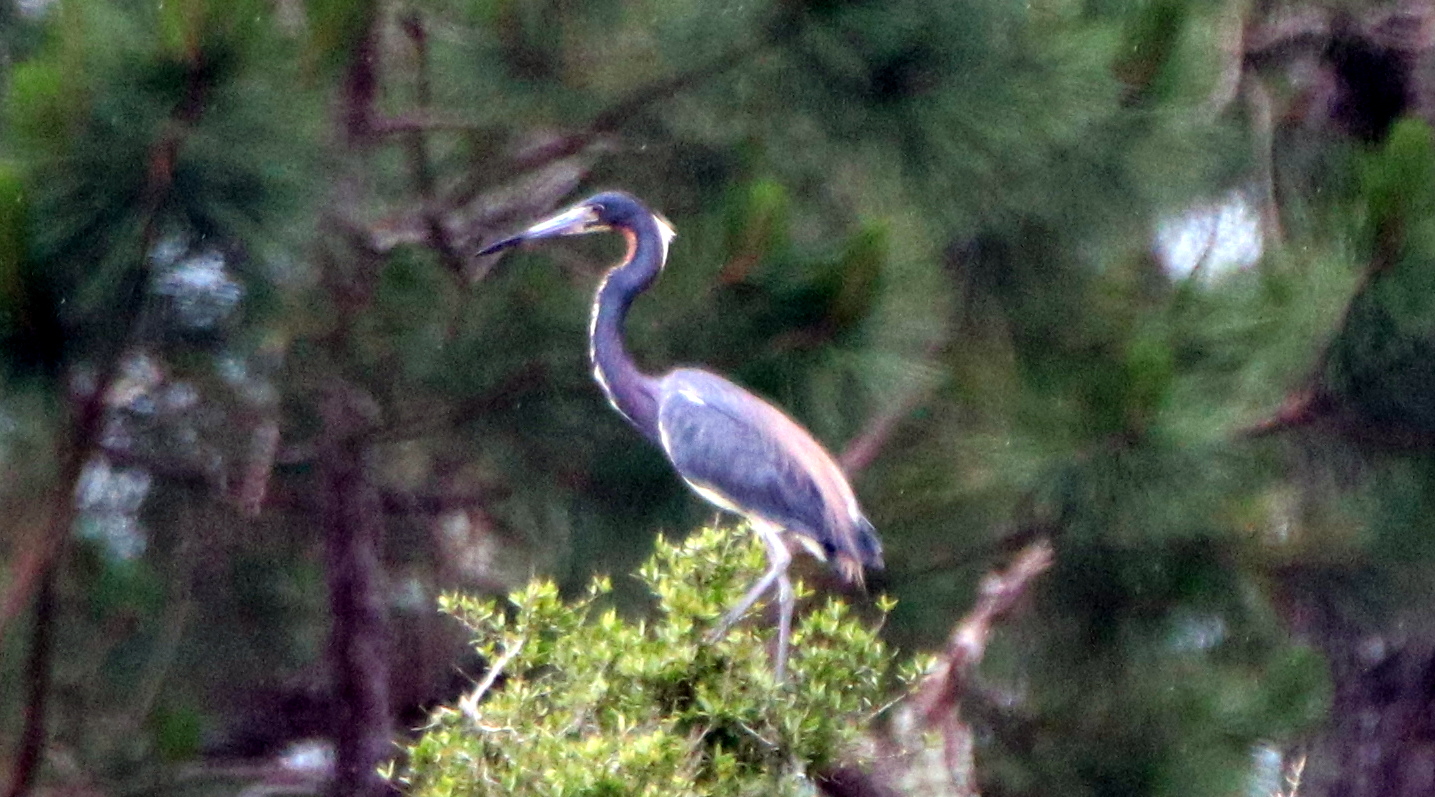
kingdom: Animalia
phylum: Chordata
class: Aves
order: Pelecaniformes
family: Ardeidae
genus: Egretta
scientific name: Egretta tricolor
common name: Tricolored heron
